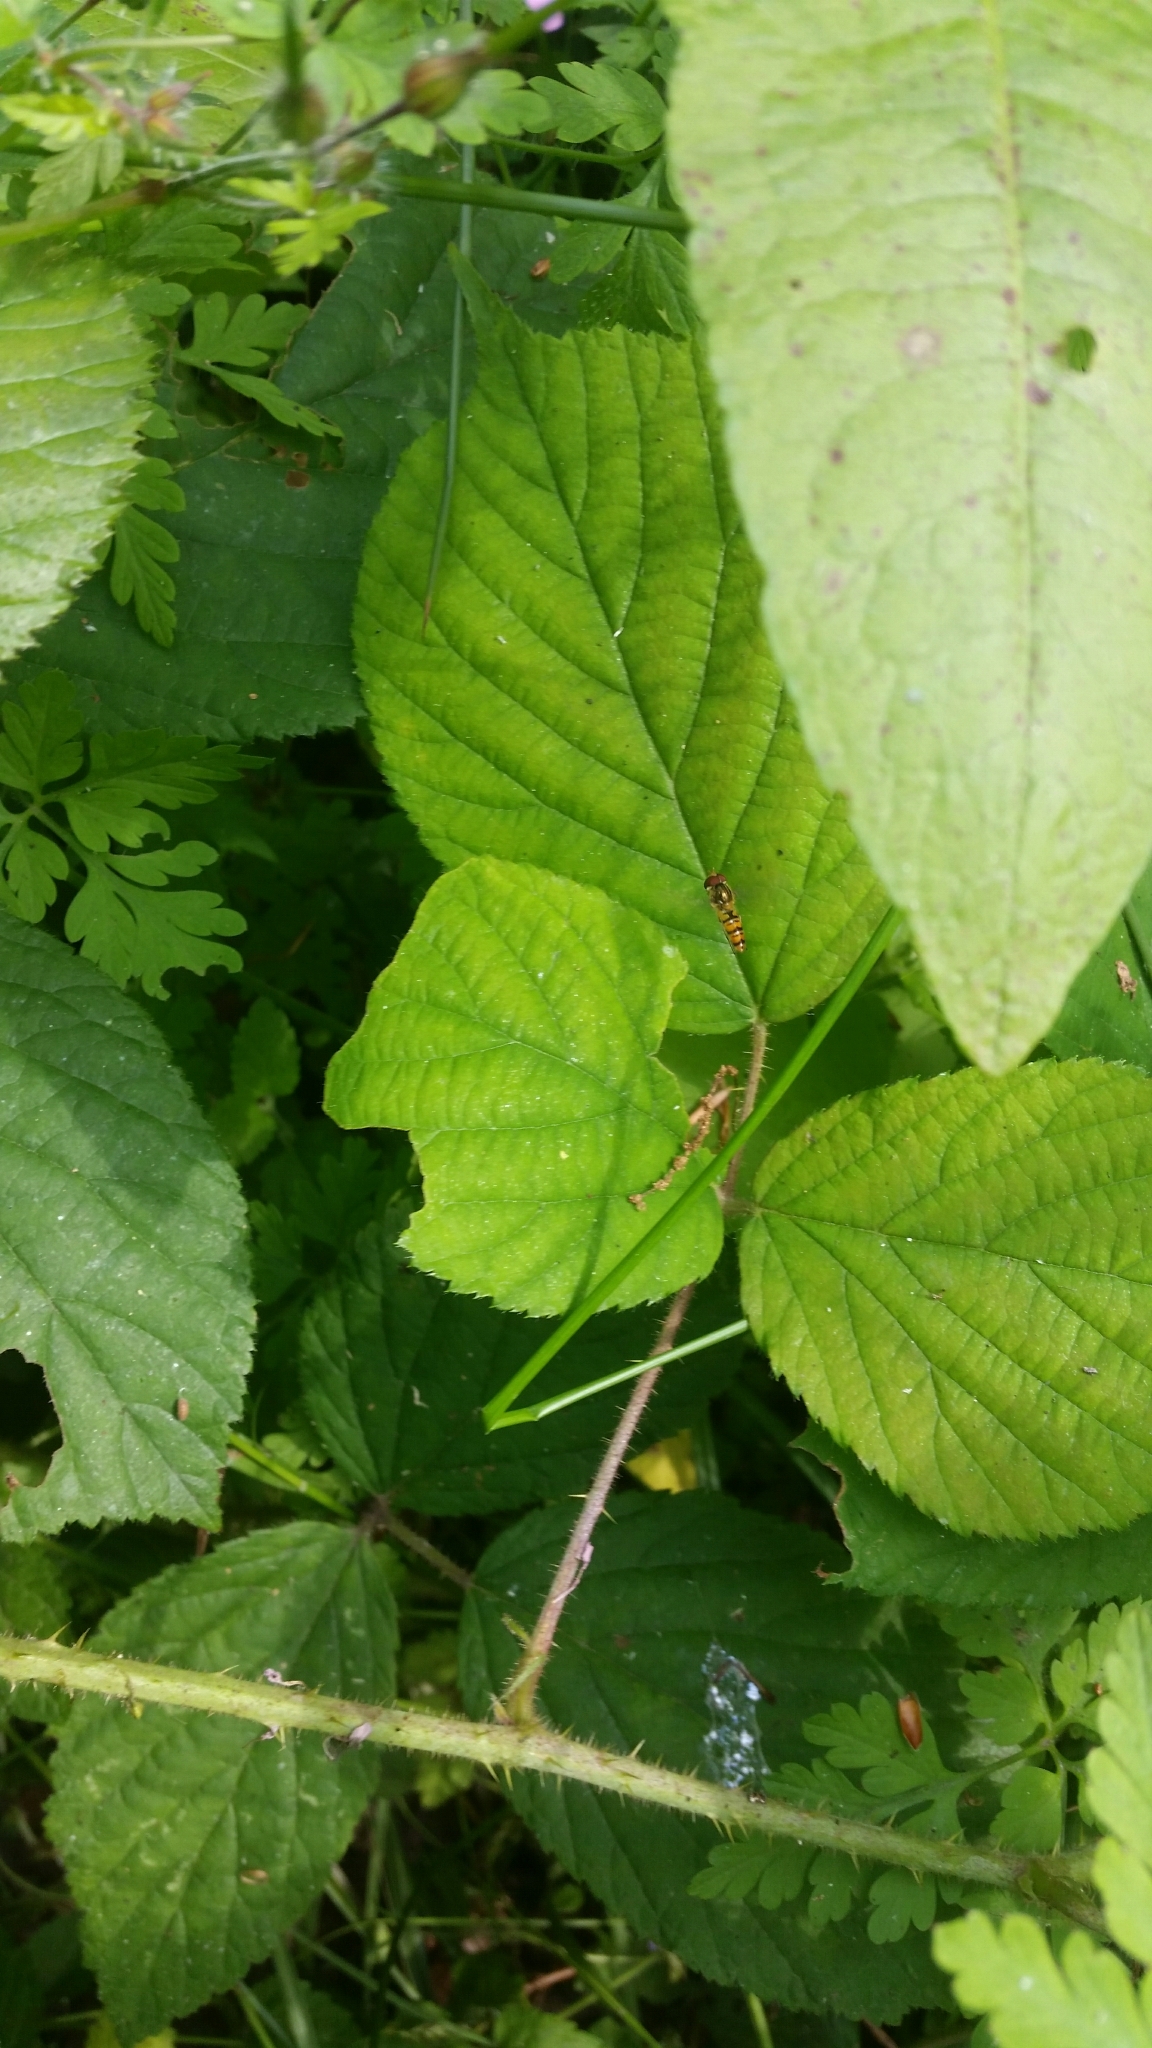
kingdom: Animalia
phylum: Arthropoda
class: Insecta
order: Diptera
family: Syrphidae
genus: Episyrphus
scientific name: Episyrphus balteatus
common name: Marmalade hoverfly
